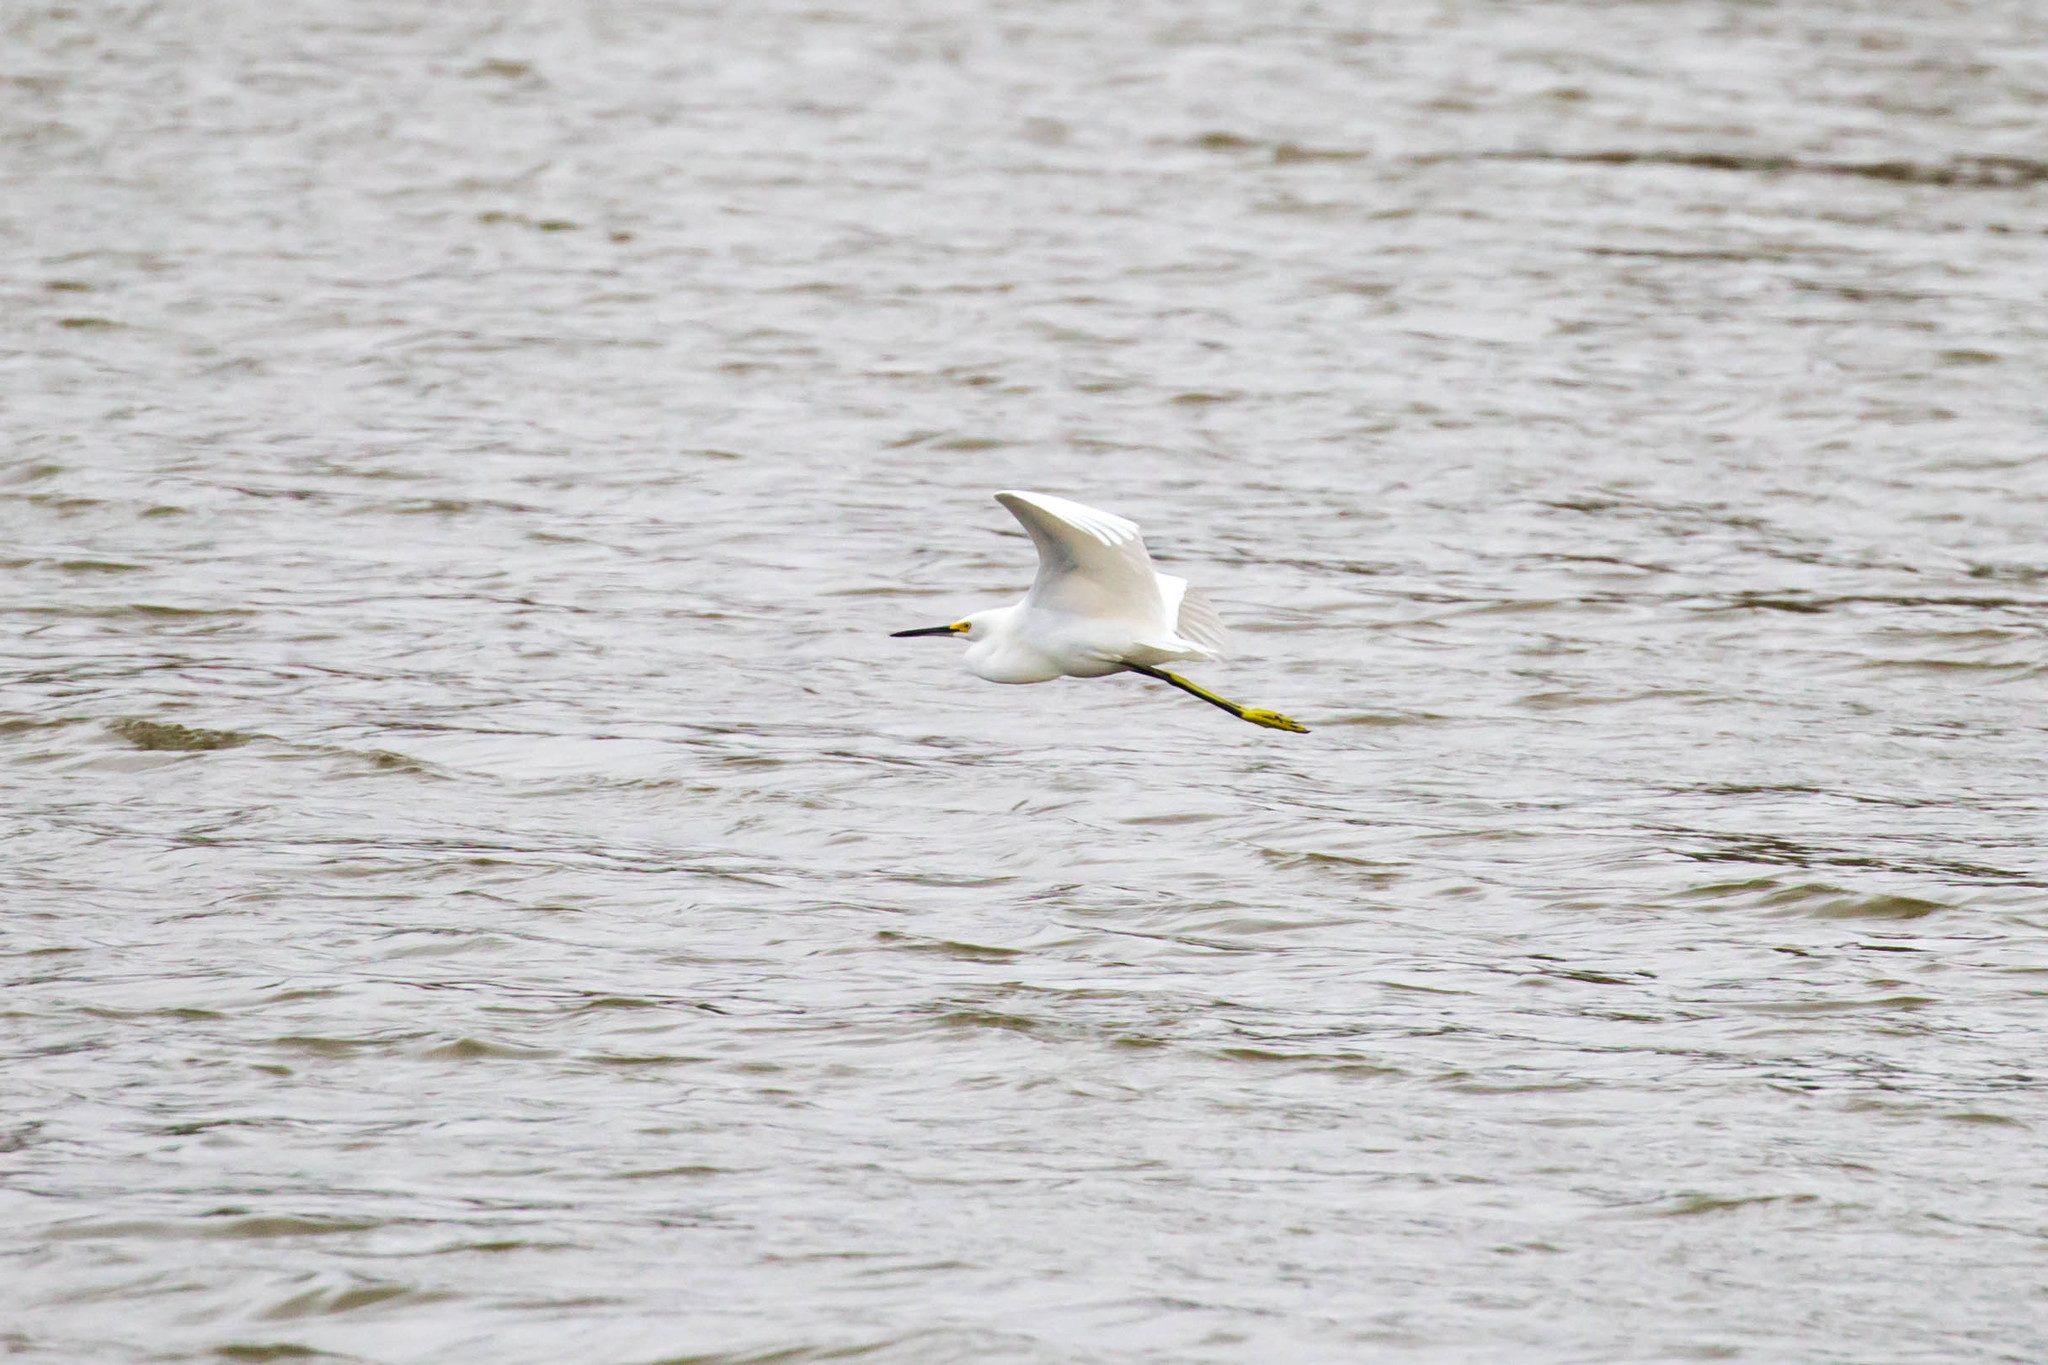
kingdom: Animalia
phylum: Chordata
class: Aves
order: Pelecaniformes
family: Ardeidae
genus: Egretta
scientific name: Egretta thula
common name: Snowy egret
